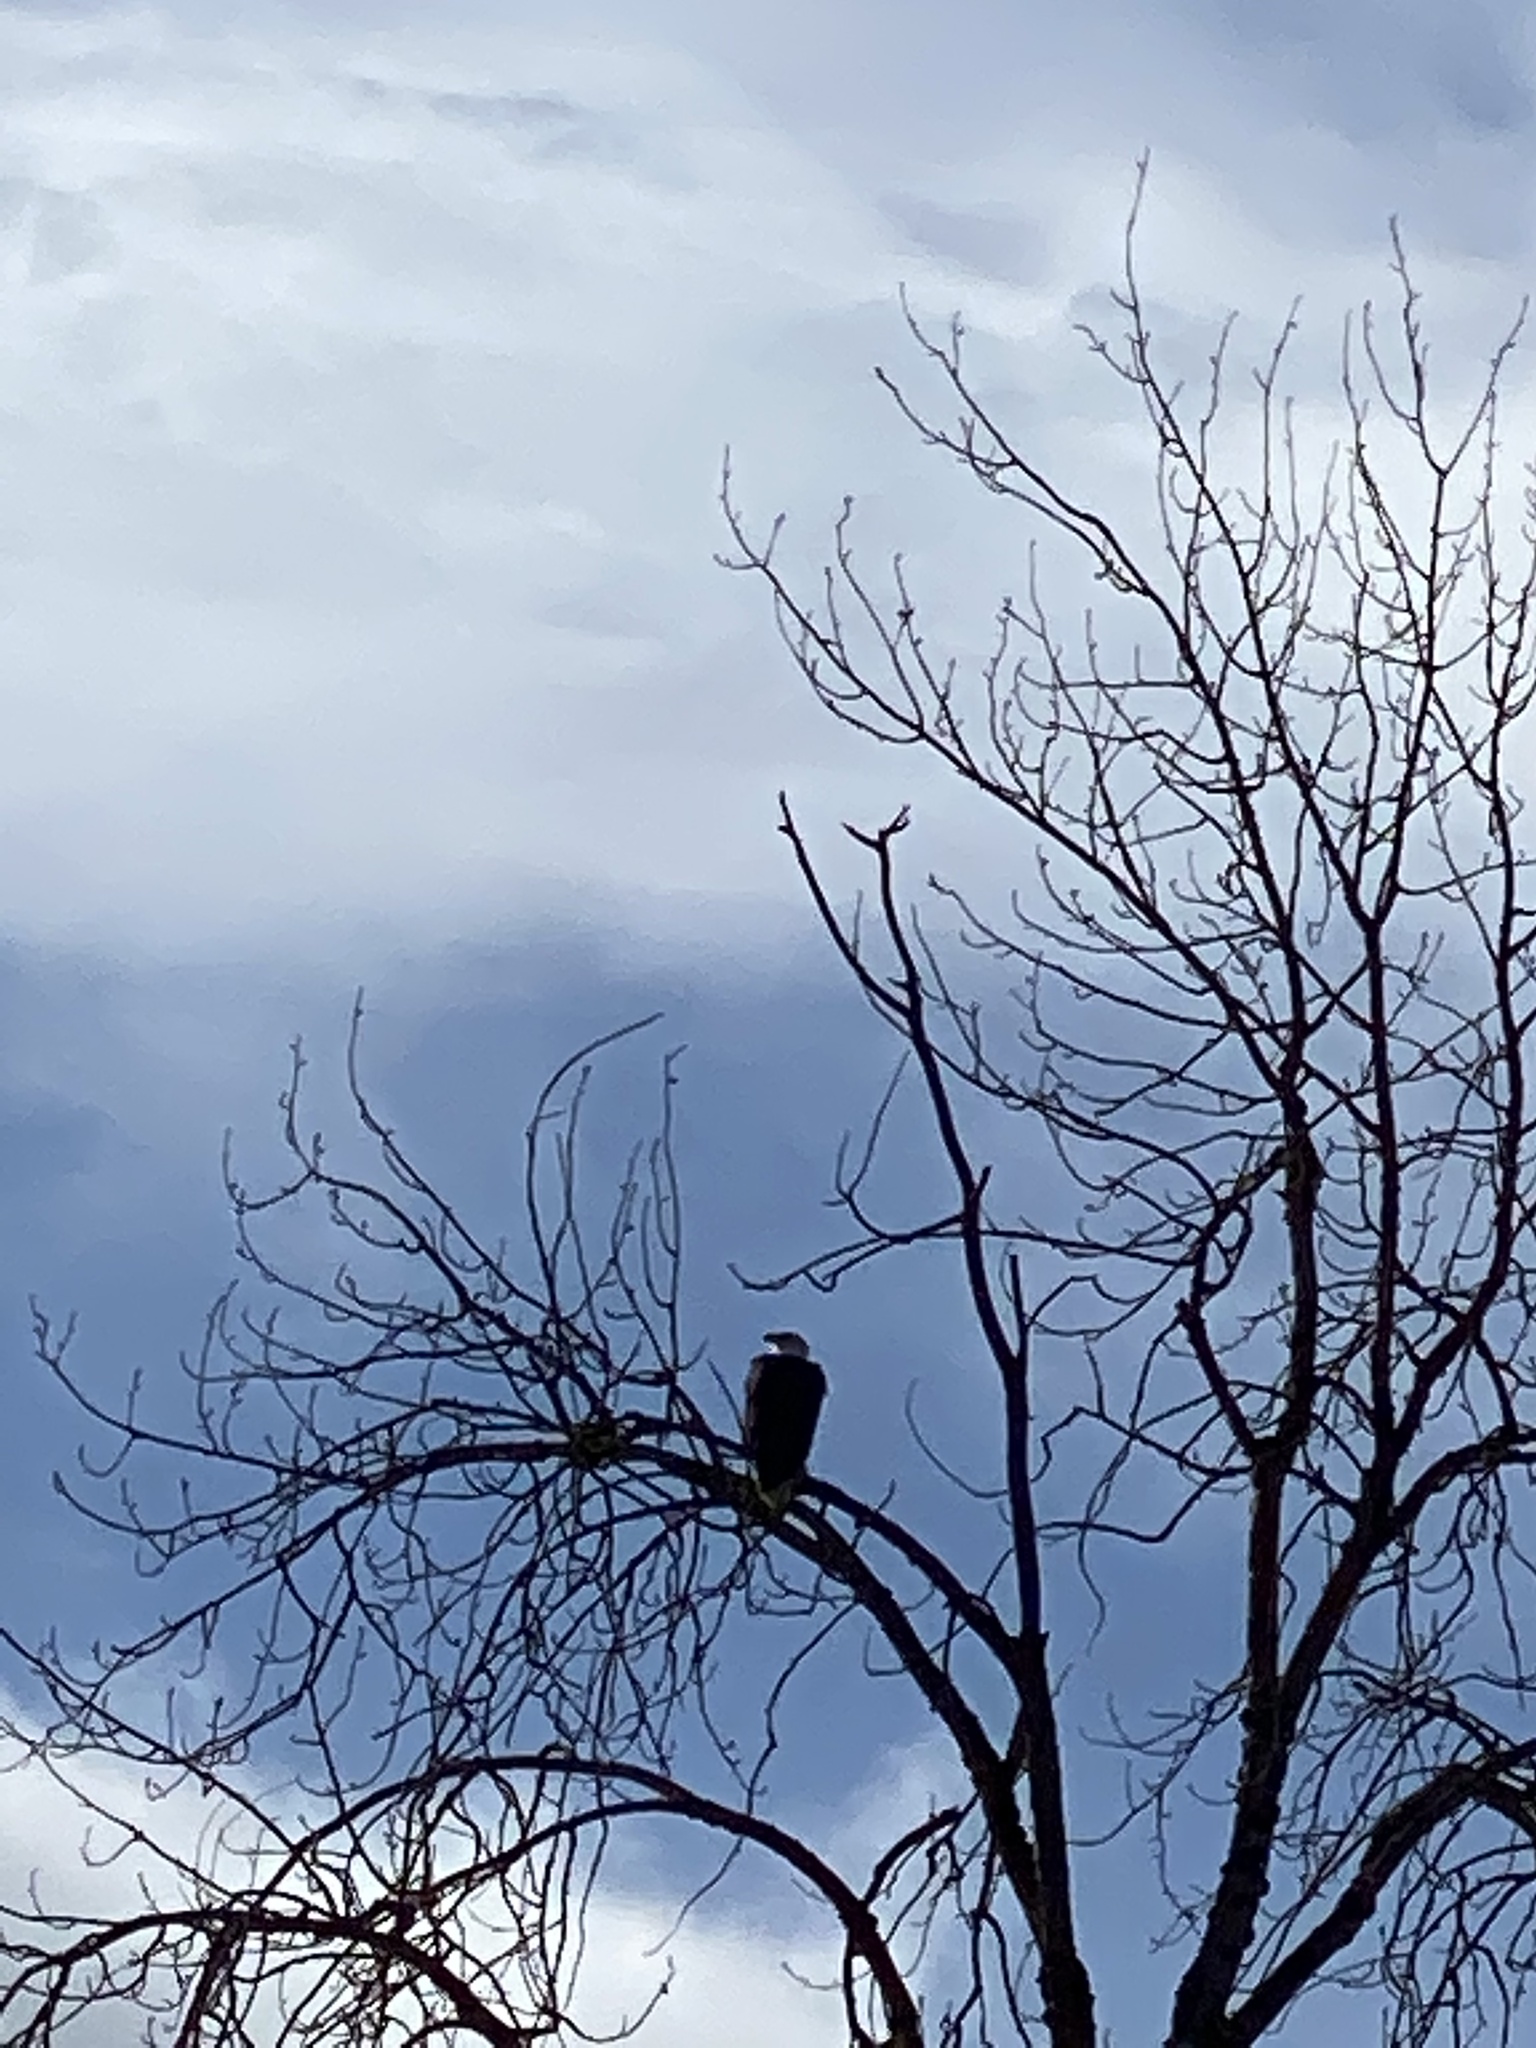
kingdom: Animalia
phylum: Chordata
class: Aves
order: Accipitriformes
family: Accipitridae
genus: Haliaeetus
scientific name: Haliaeetus leucocephalus
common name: Bald eagle
